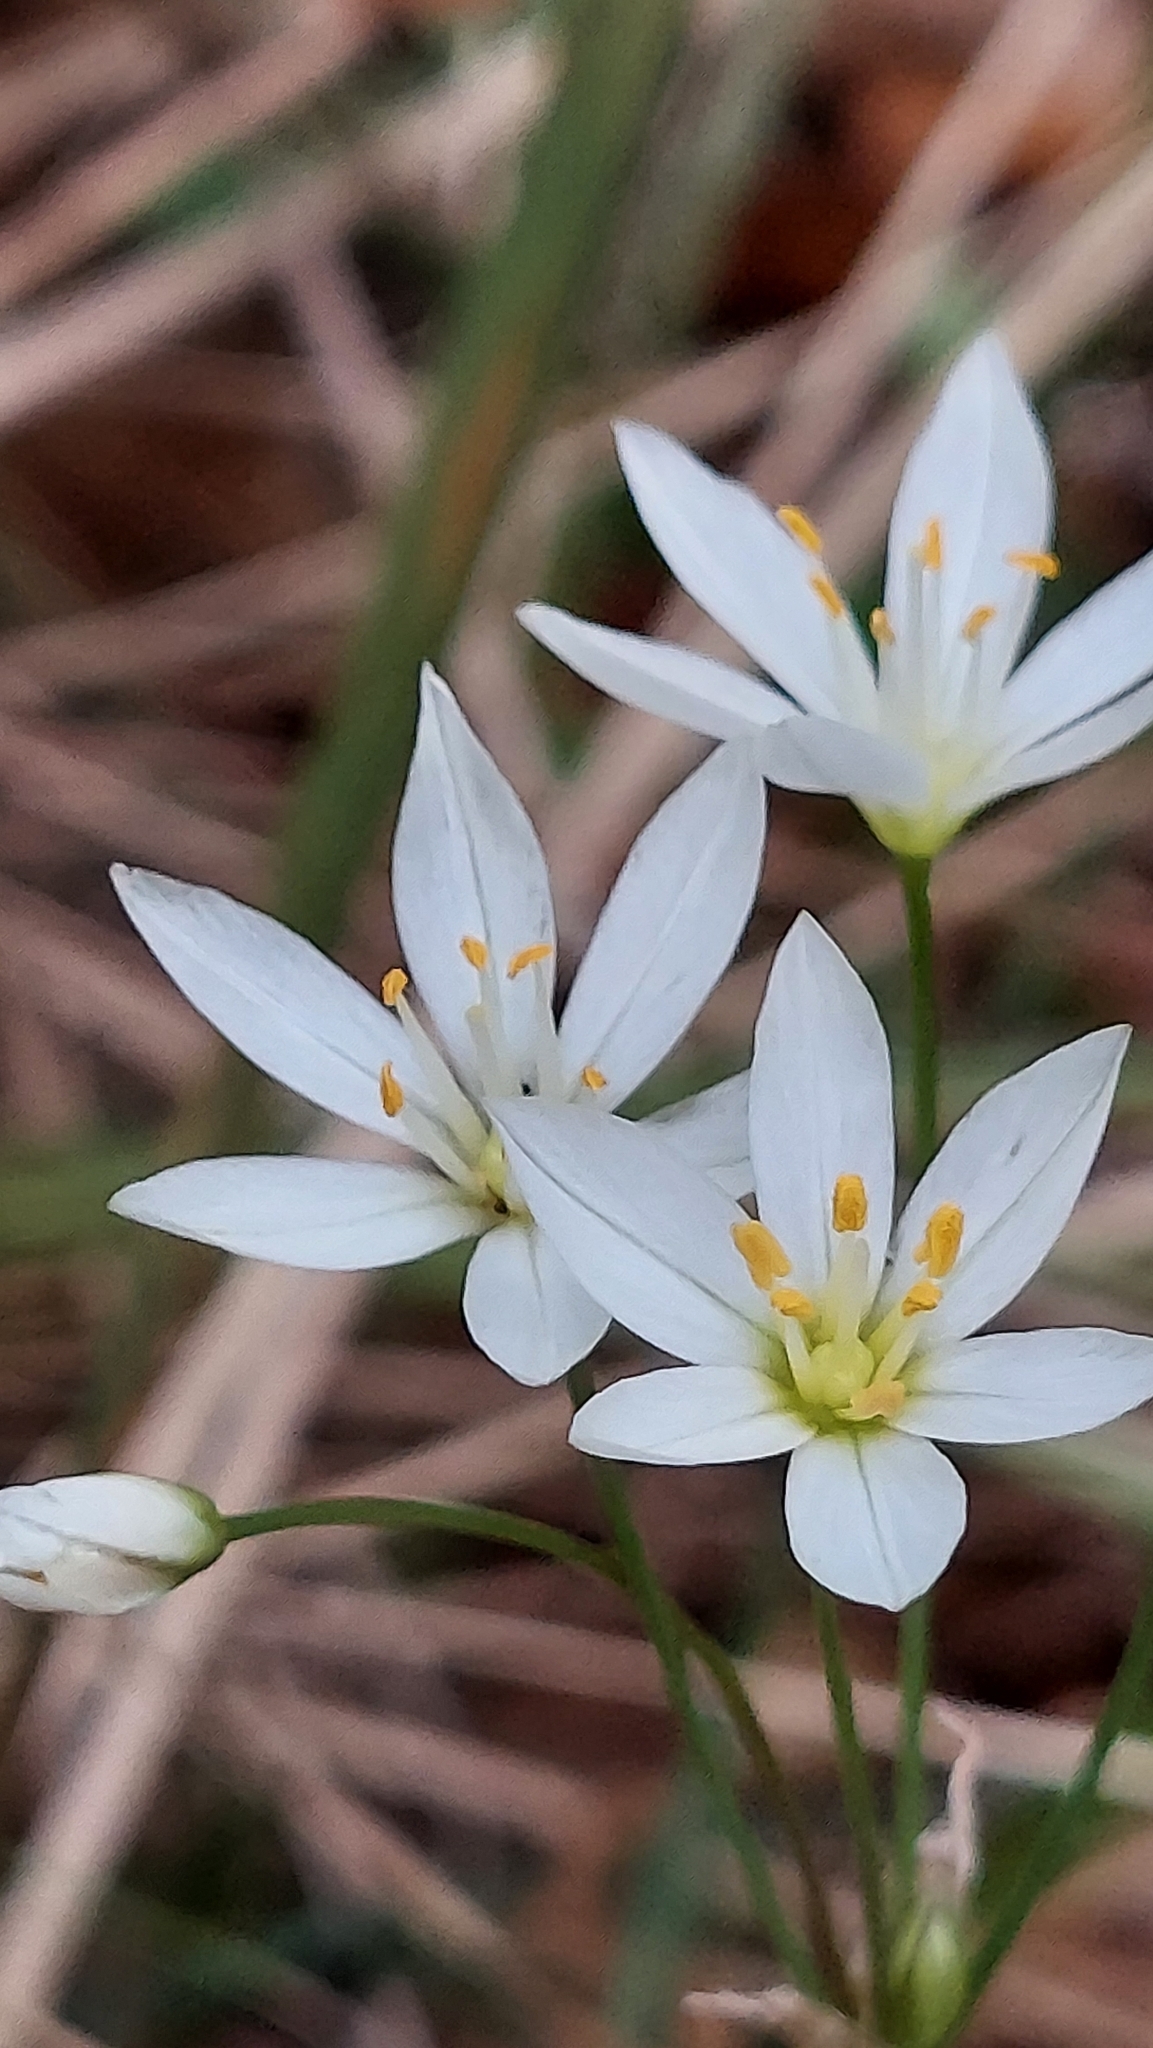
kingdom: Plantae
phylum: Tracheophyta
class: Liliopsida
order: Asparagales
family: Amaryllidaceae
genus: Nothoscordum
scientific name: Nothoscordum bivalve
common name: Crow-poison
